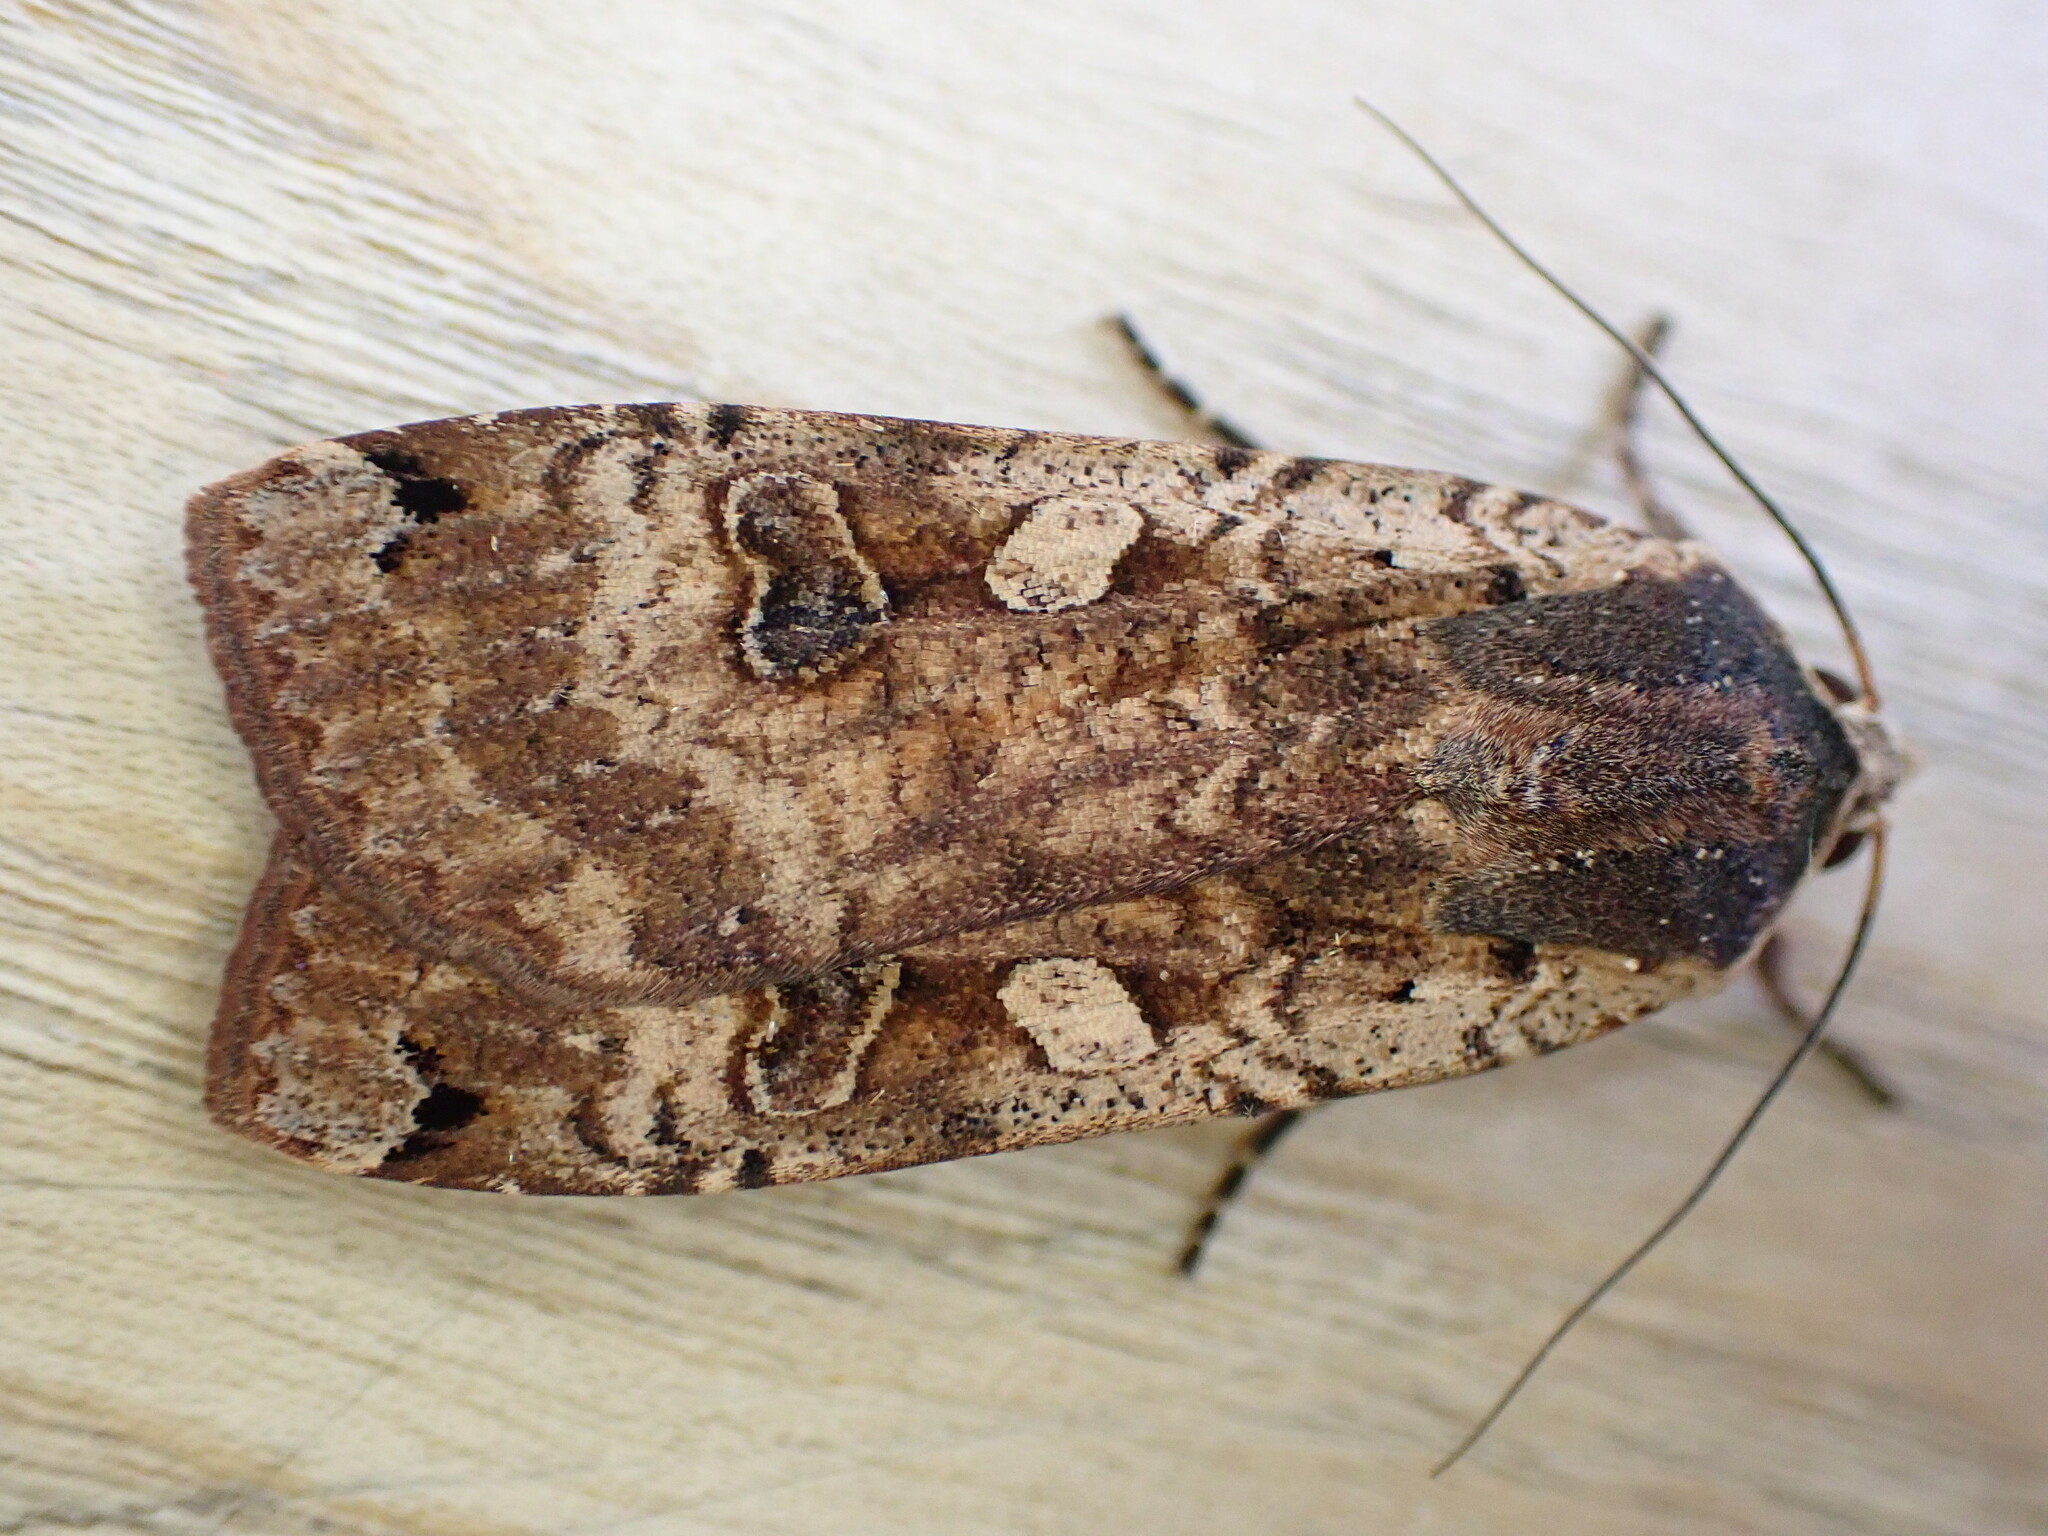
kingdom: Animalia
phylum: Arthropoda
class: Insecta
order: Lepidoptera
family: Noctuidae
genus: Noctua
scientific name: Noctua pronuba
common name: Large yellow underwing
